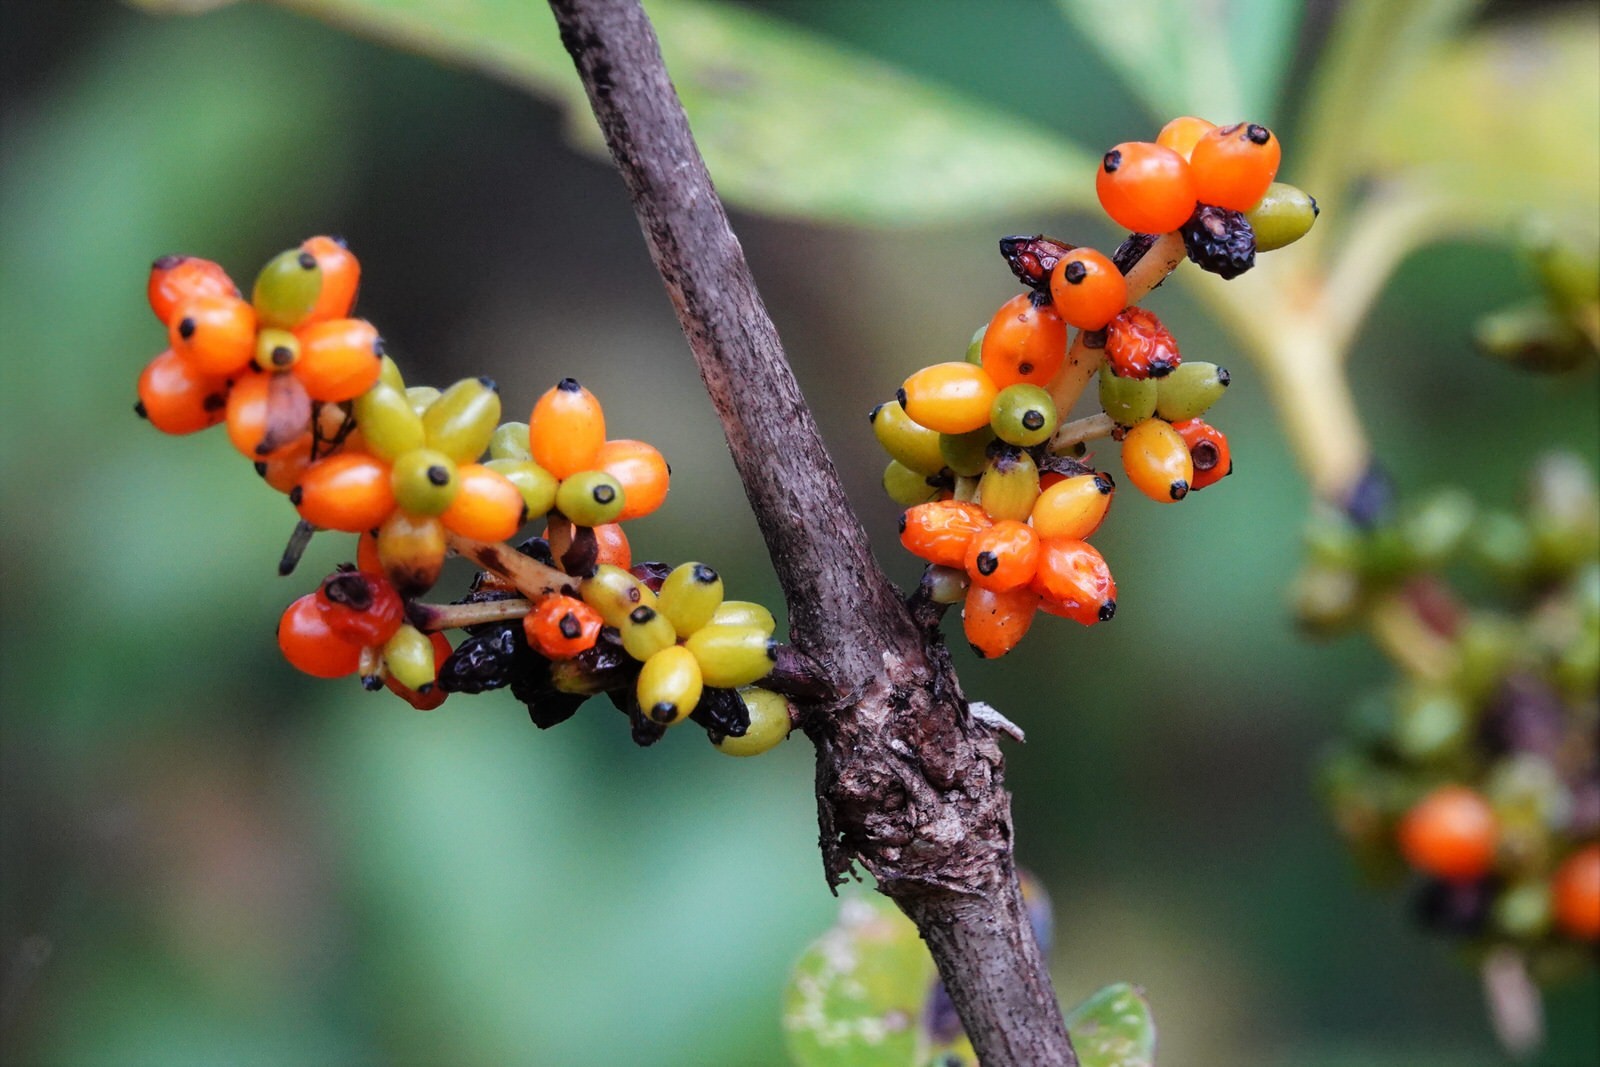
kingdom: Plantae
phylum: Tracheophyta
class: Magnoliopsida
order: Gentianales
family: Rubiaceae
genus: Coprosma
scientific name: Coprosma robusta
